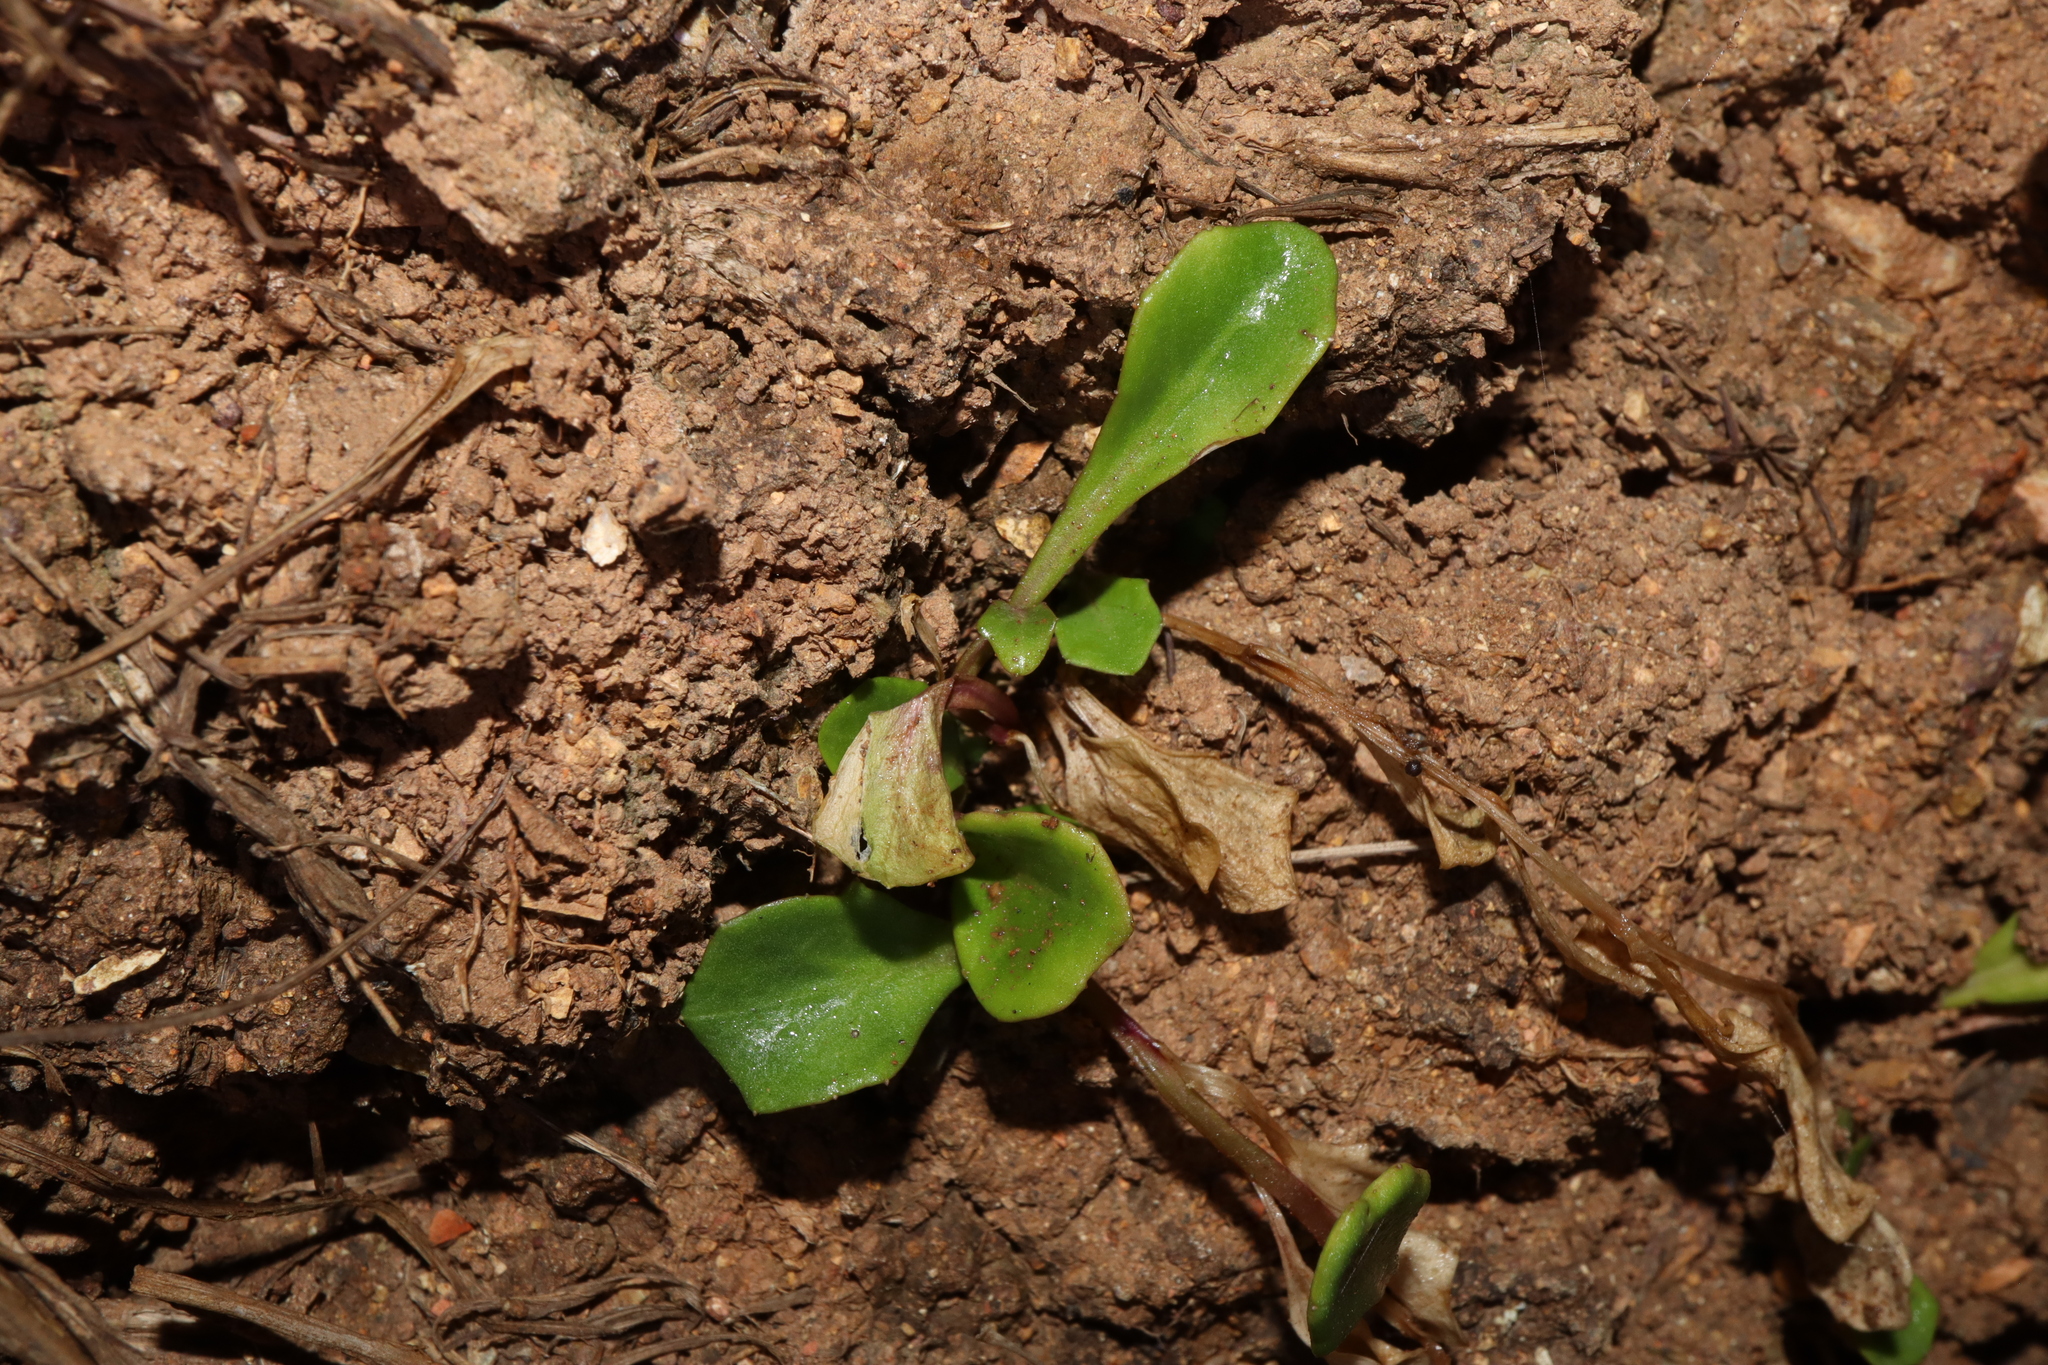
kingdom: Plantae
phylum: Tracheophyta
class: Magnoliopsida
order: Asterales
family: Campanulaceae
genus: Lobelia
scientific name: Lobelia anceps
